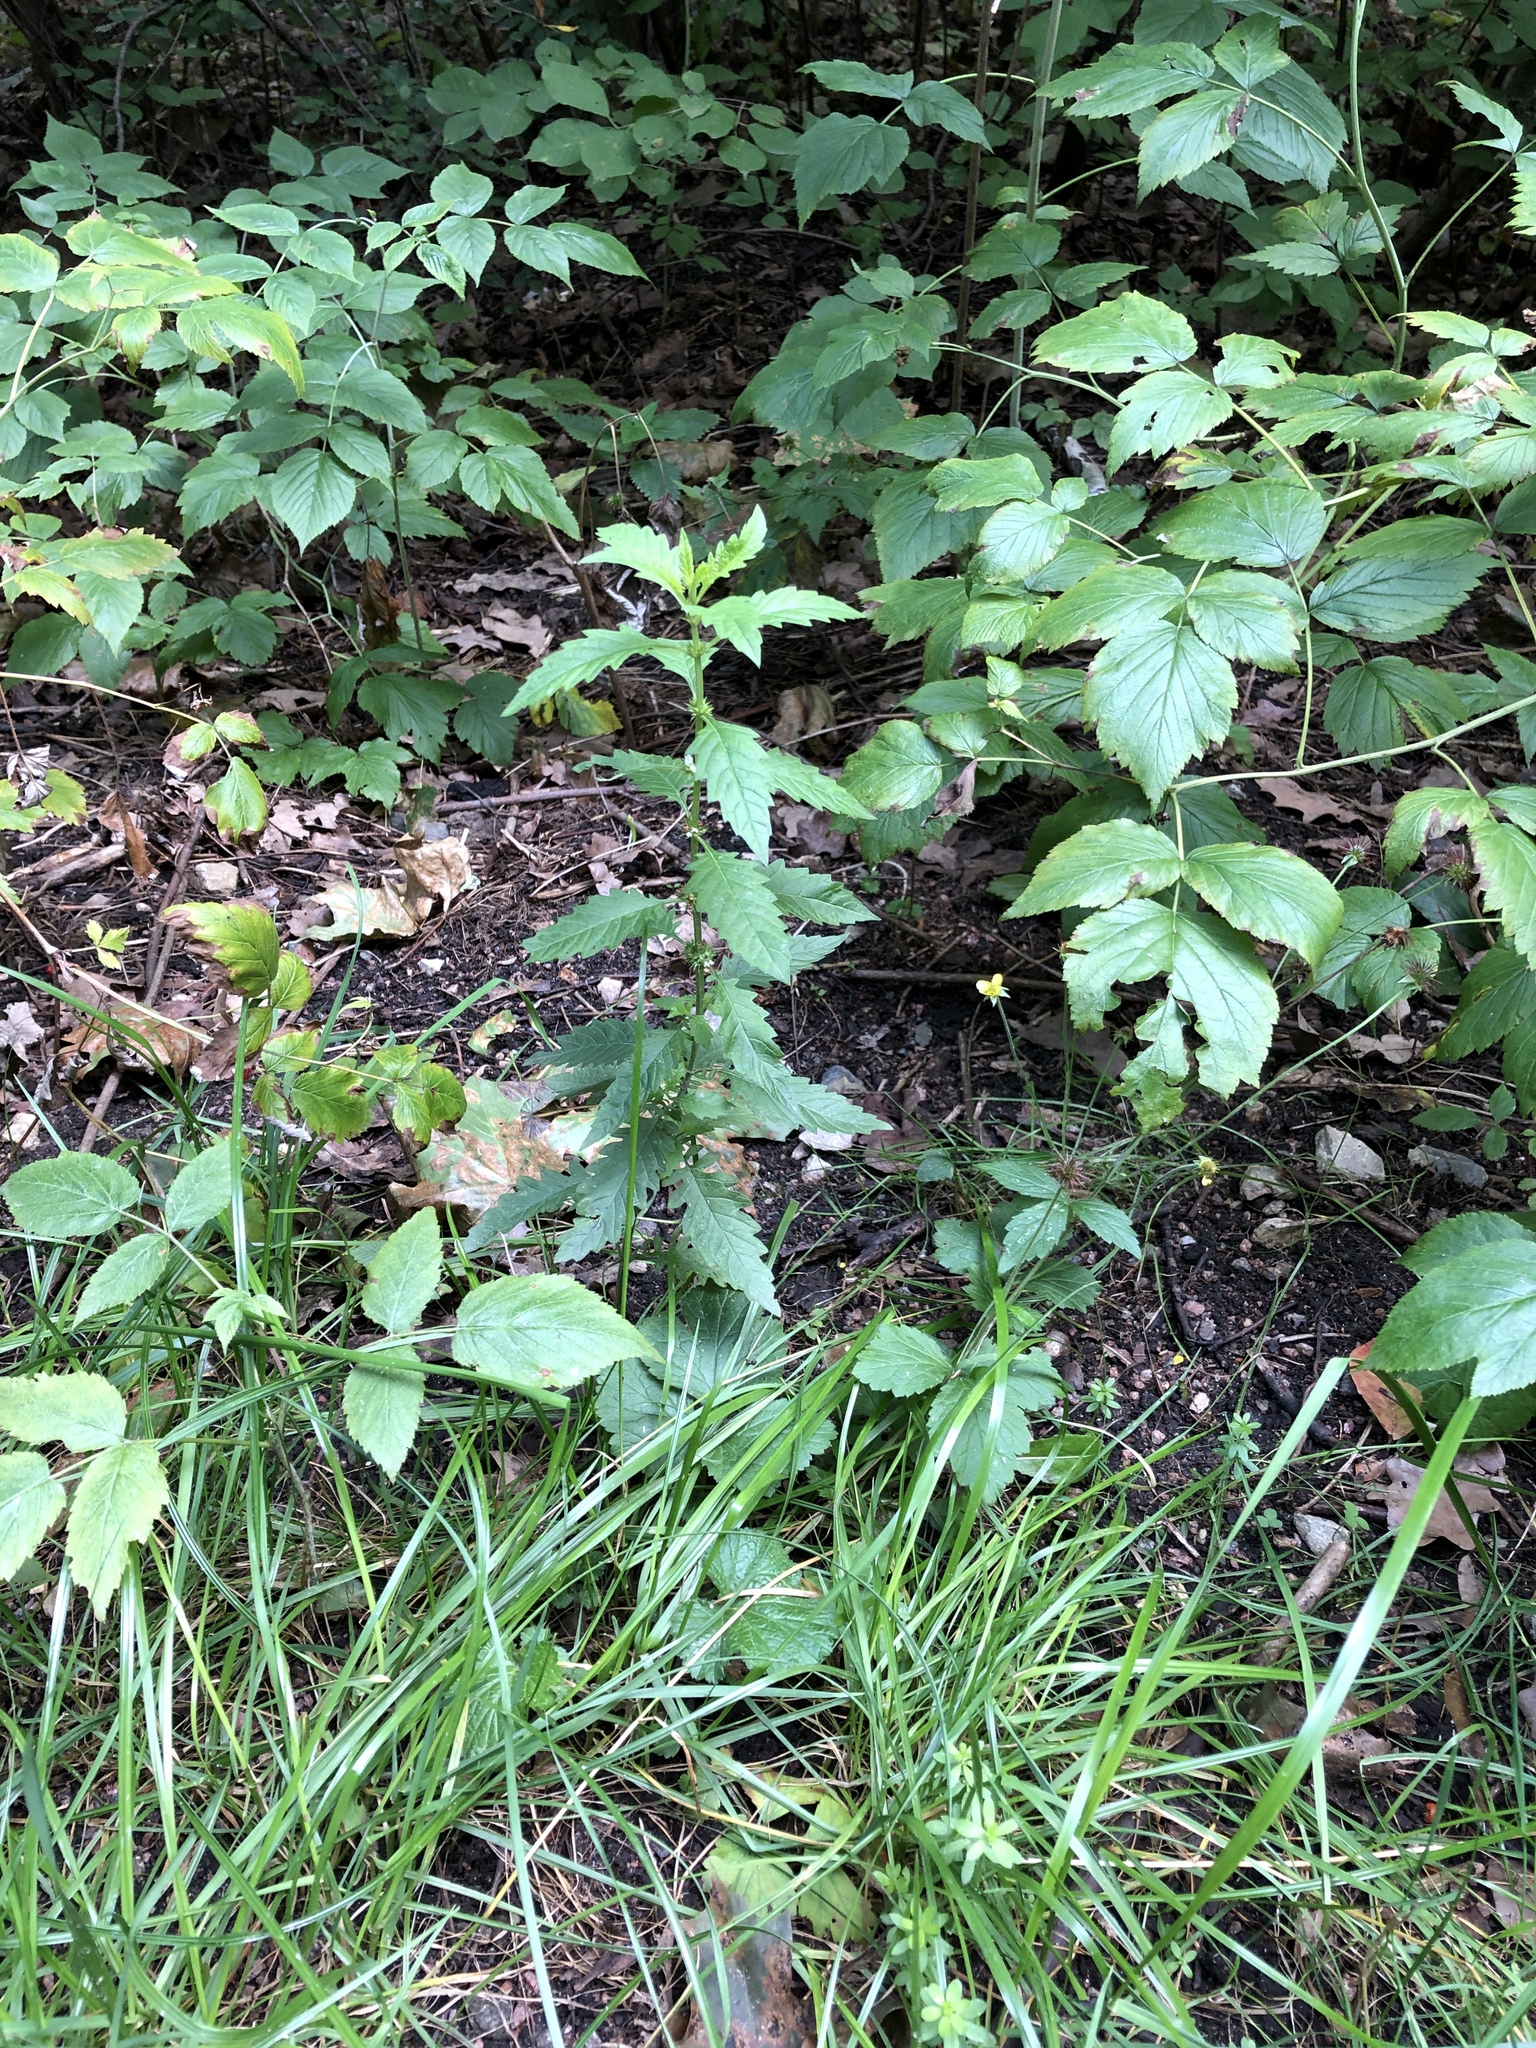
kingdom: Plantae
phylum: Tracheophyta
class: Magnoliopsida
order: Lamiales
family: Lamiaceae
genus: Lycopus
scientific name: Lycopus europaeus
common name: European bugleweed
